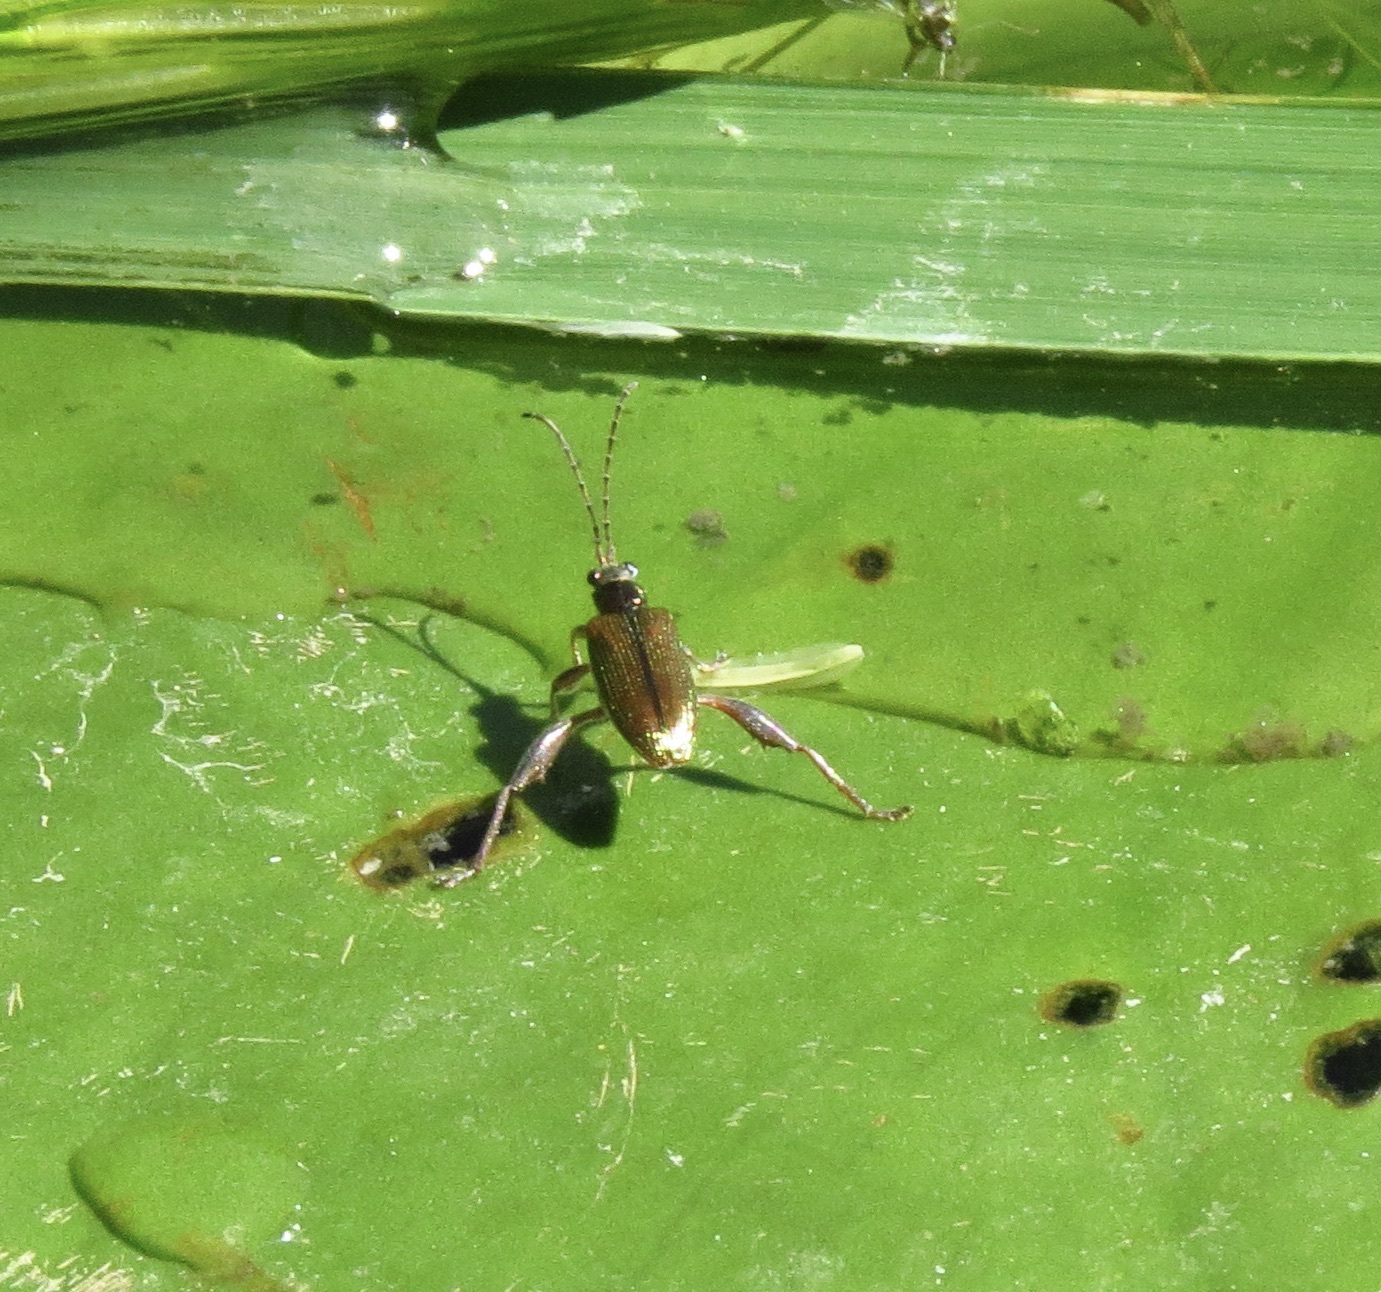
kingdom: Animalia
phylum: Arthropoda
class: Insecta
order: Coleoptera
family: Chrysomelidae
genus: Donacia
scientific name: Donacia cincticornis
